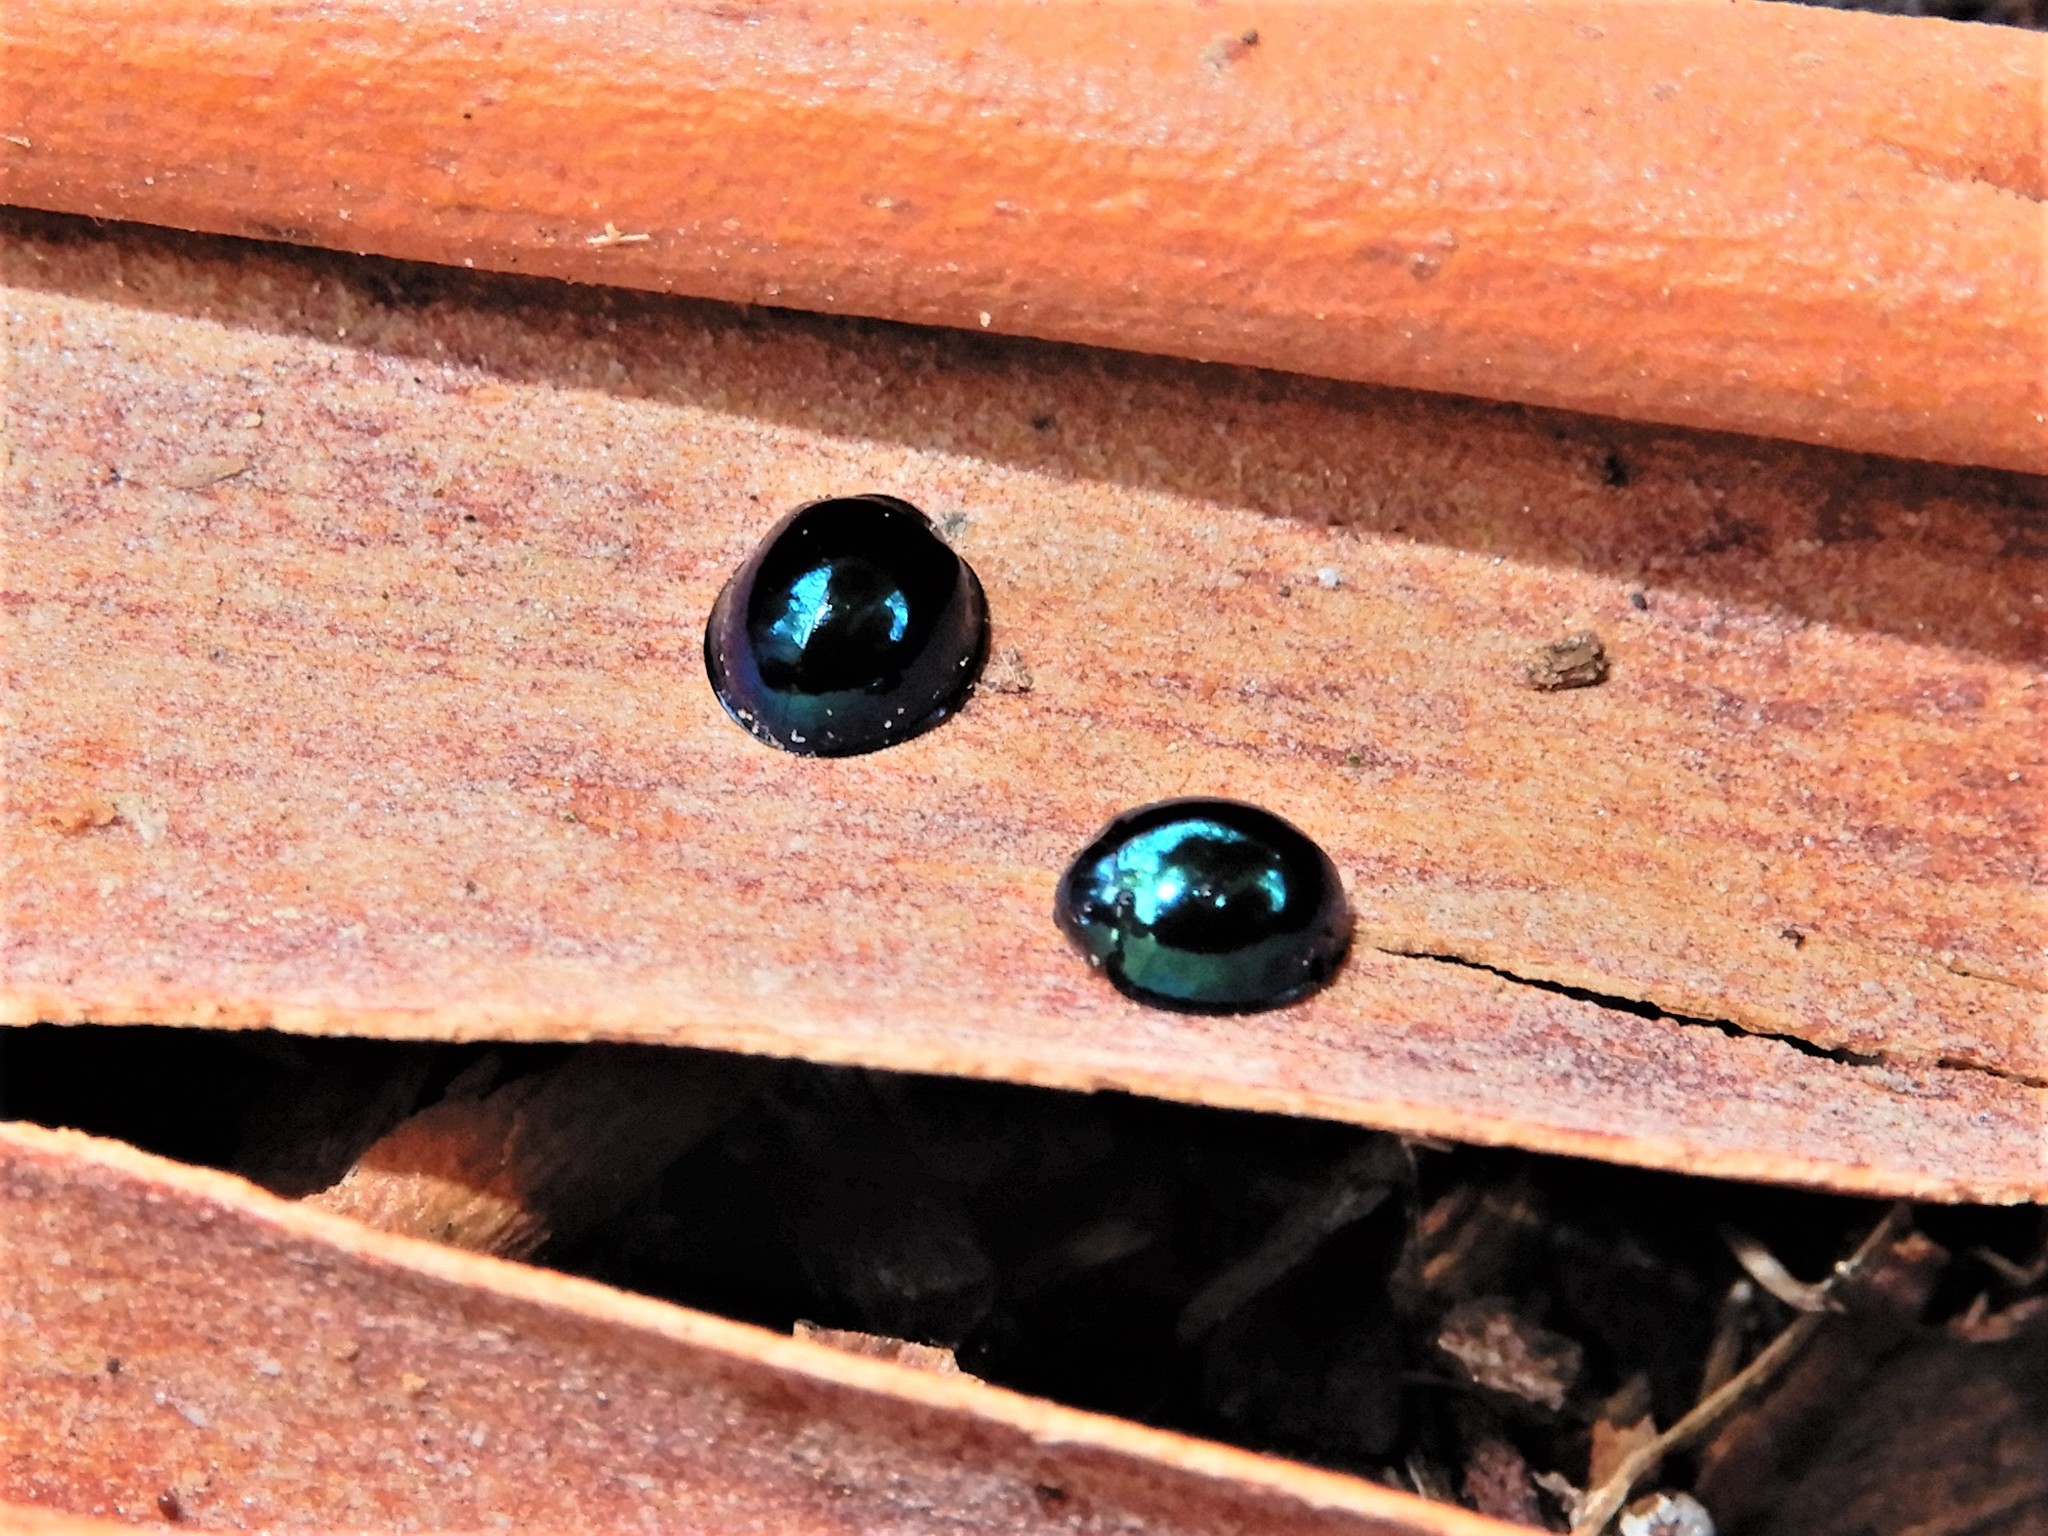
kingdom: Animalia
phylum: Arthropoda
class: Insecta
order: Coleoptera
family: Coccinellidae
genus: Halmus
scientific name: Halmus chalybeus
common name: Steel blue ladybird beetle
